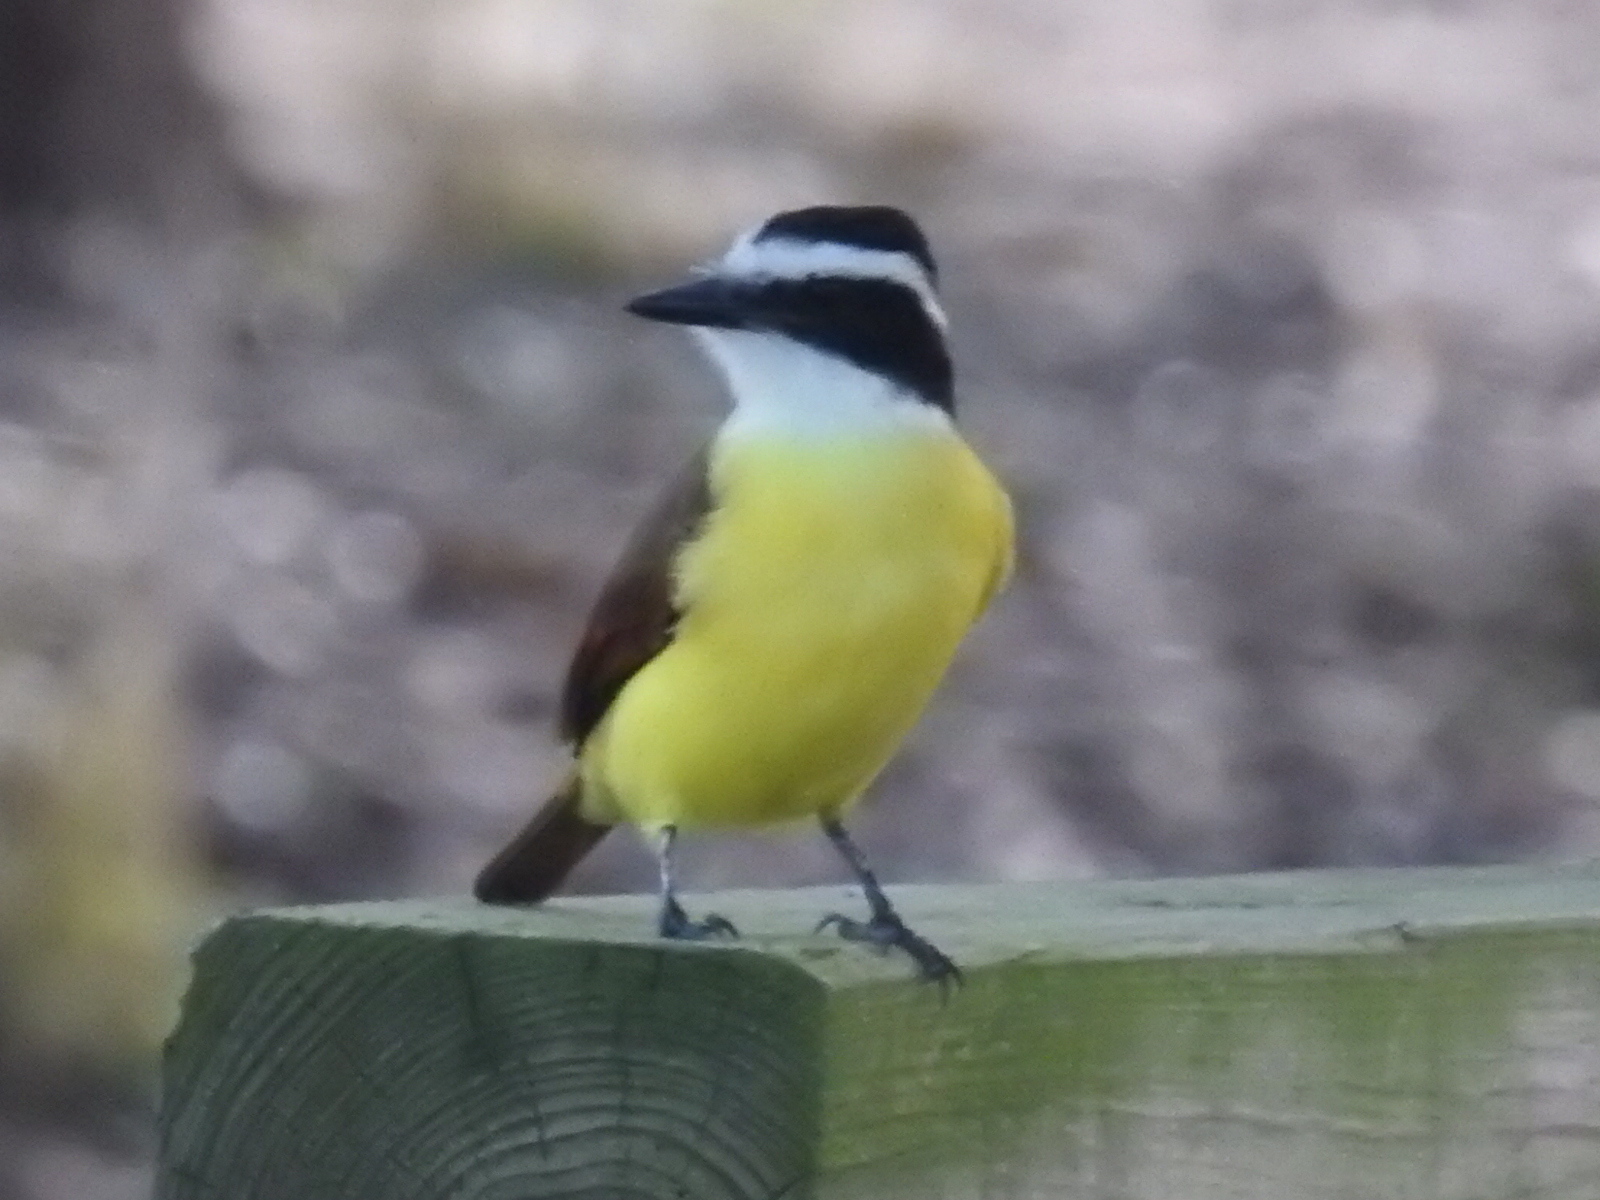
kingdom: Animalia
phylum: Chordata
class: Aves
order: Passeriformes
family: Tyrannidae
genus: Pitangus
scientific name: Pitangus sulphuratus
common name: Great kiskadee
